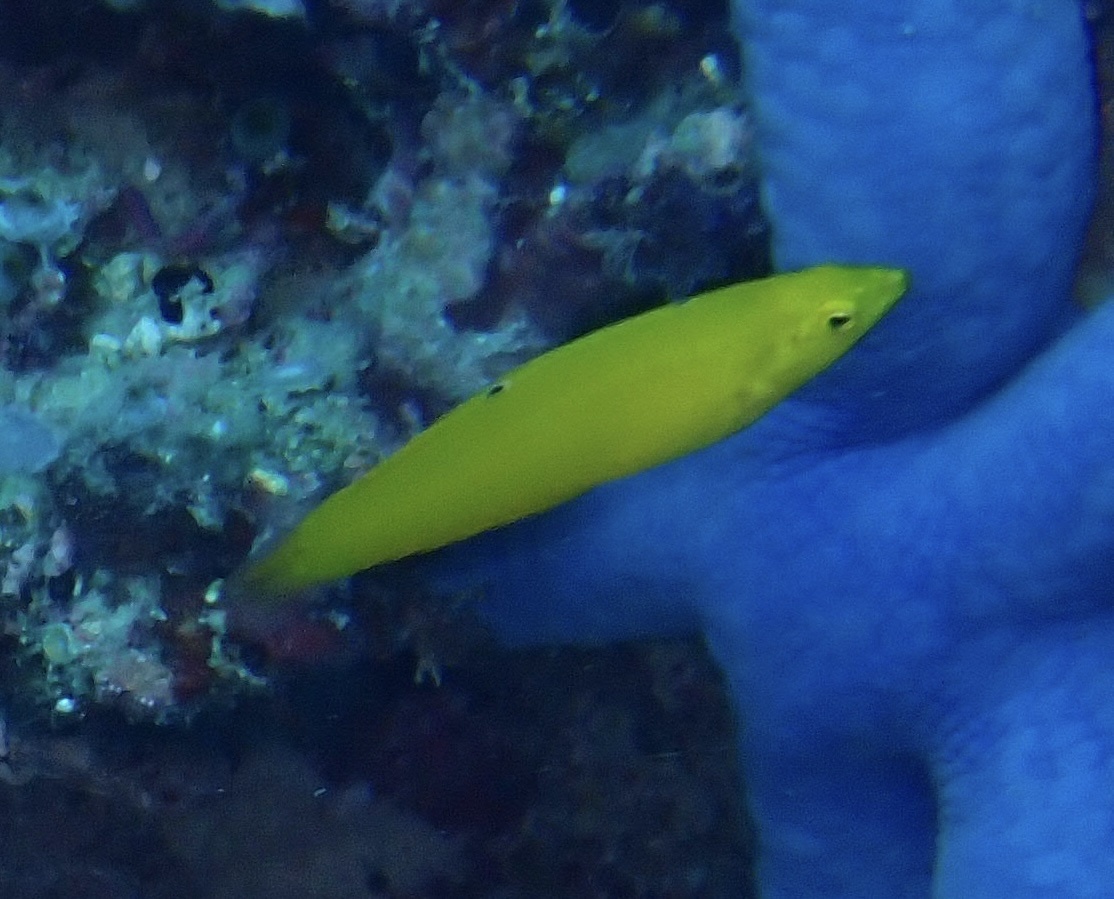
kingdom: Animalia
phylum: Chordata
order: Perciformes
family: Labridae
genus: Halichoeres
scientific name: Halichoeres chrysus
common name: Canary wrasse
